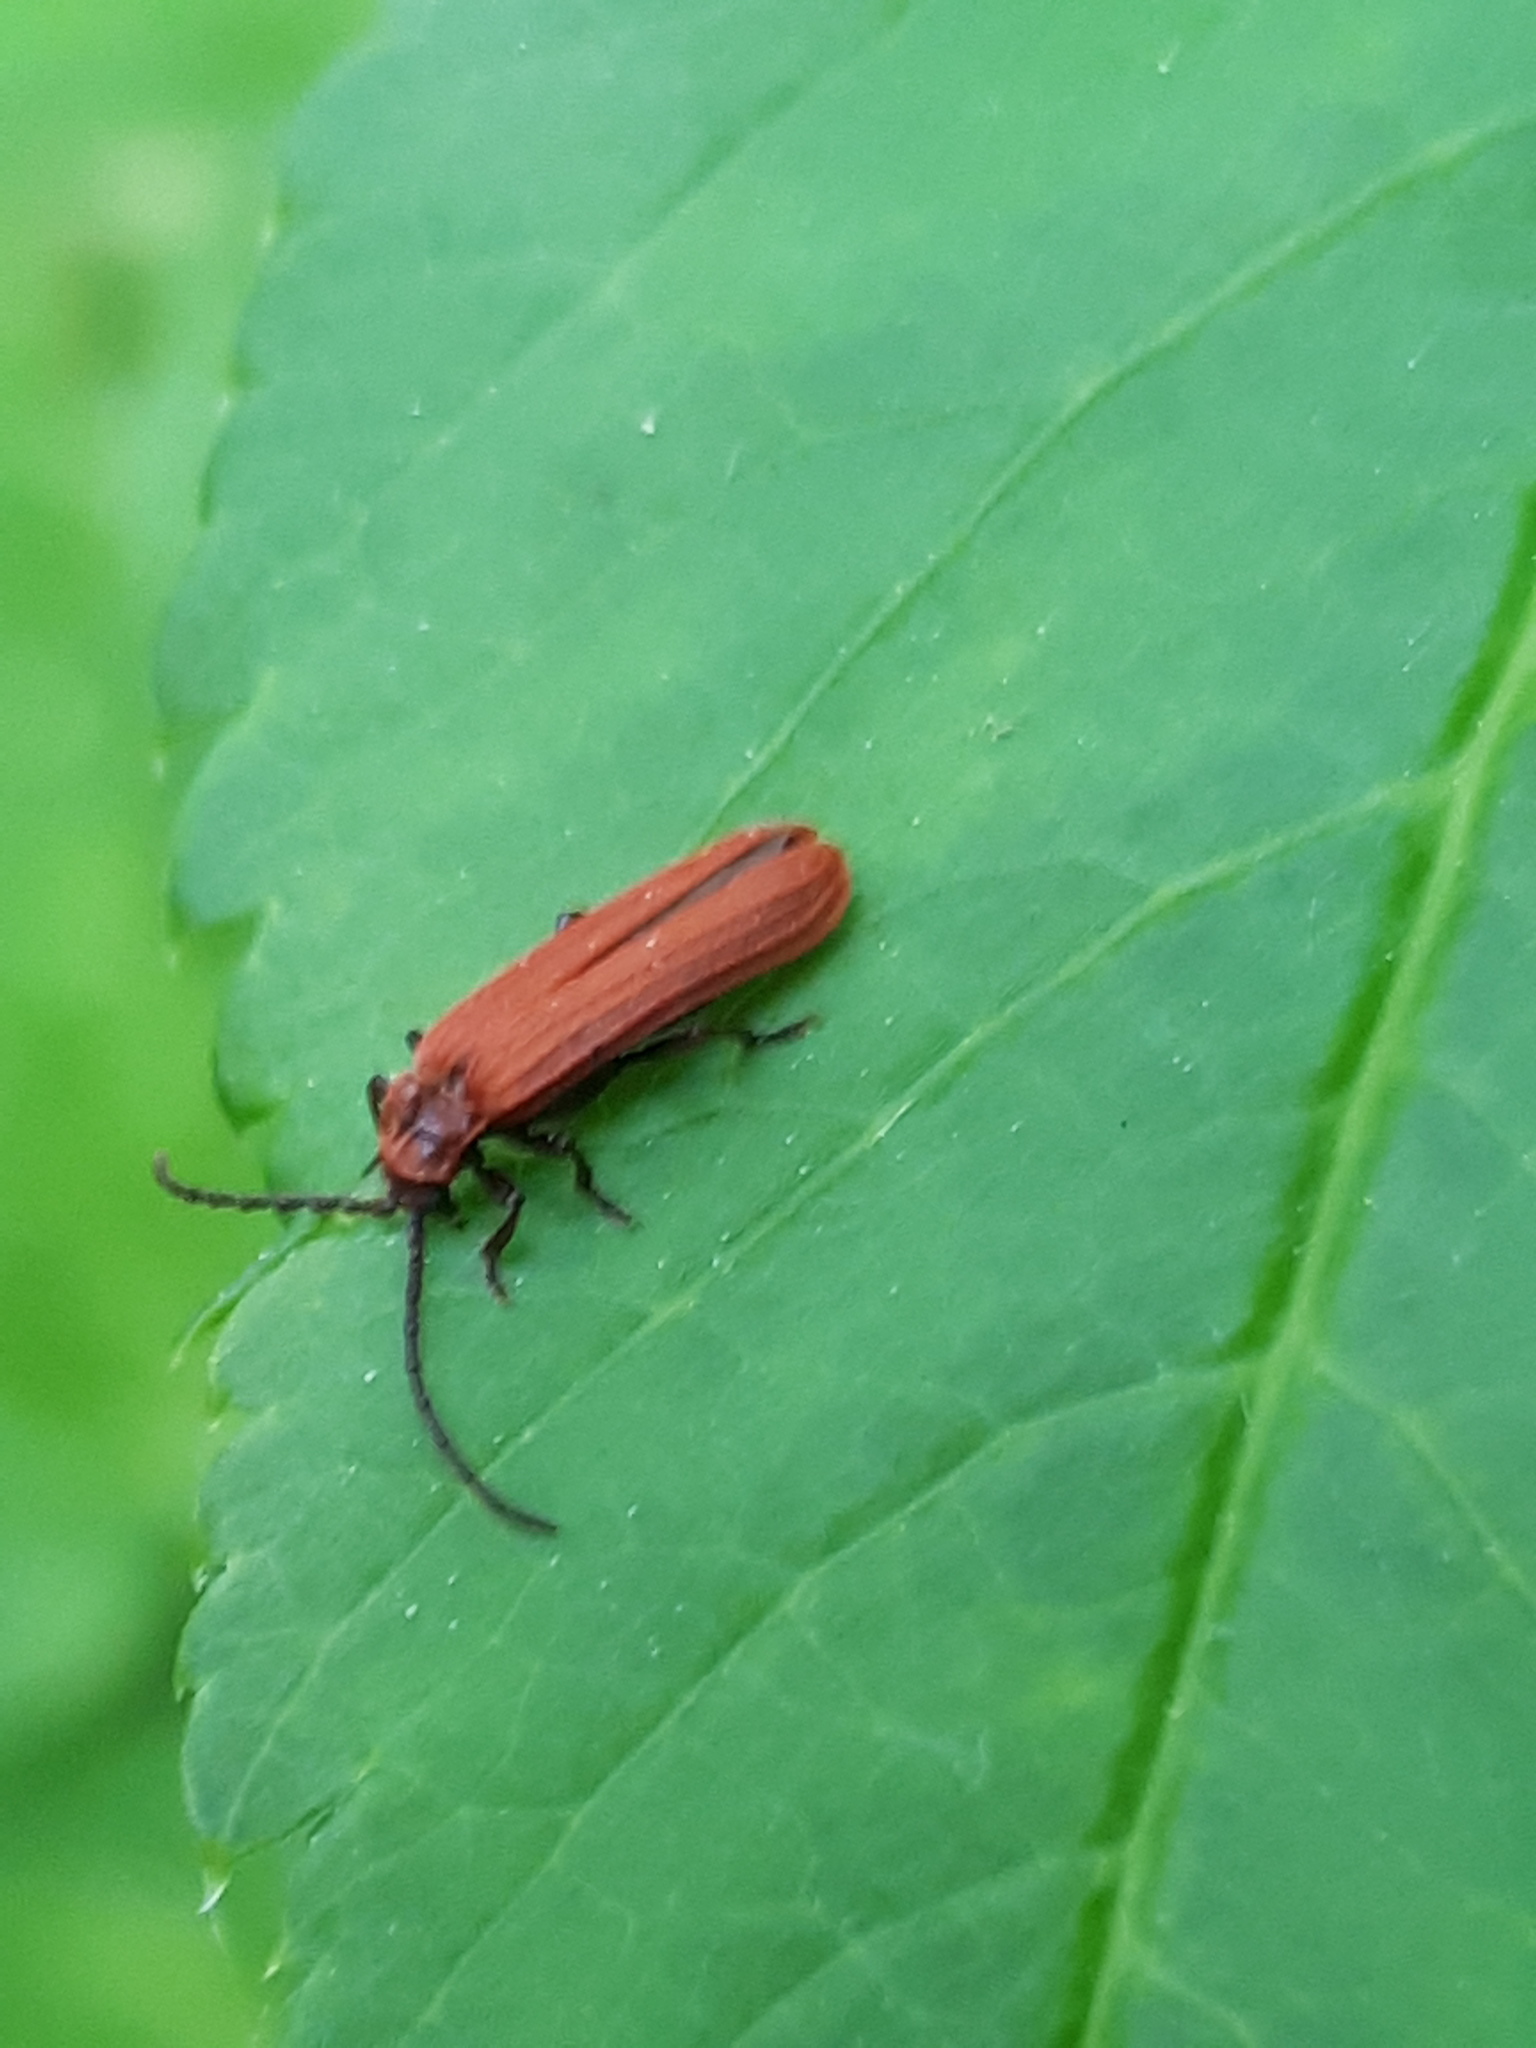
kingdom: Animalia
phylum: Arthropoda
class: Insecta
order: Coleoptera
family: Lycidae
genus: Lopheros
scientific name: Lopheros rubens
